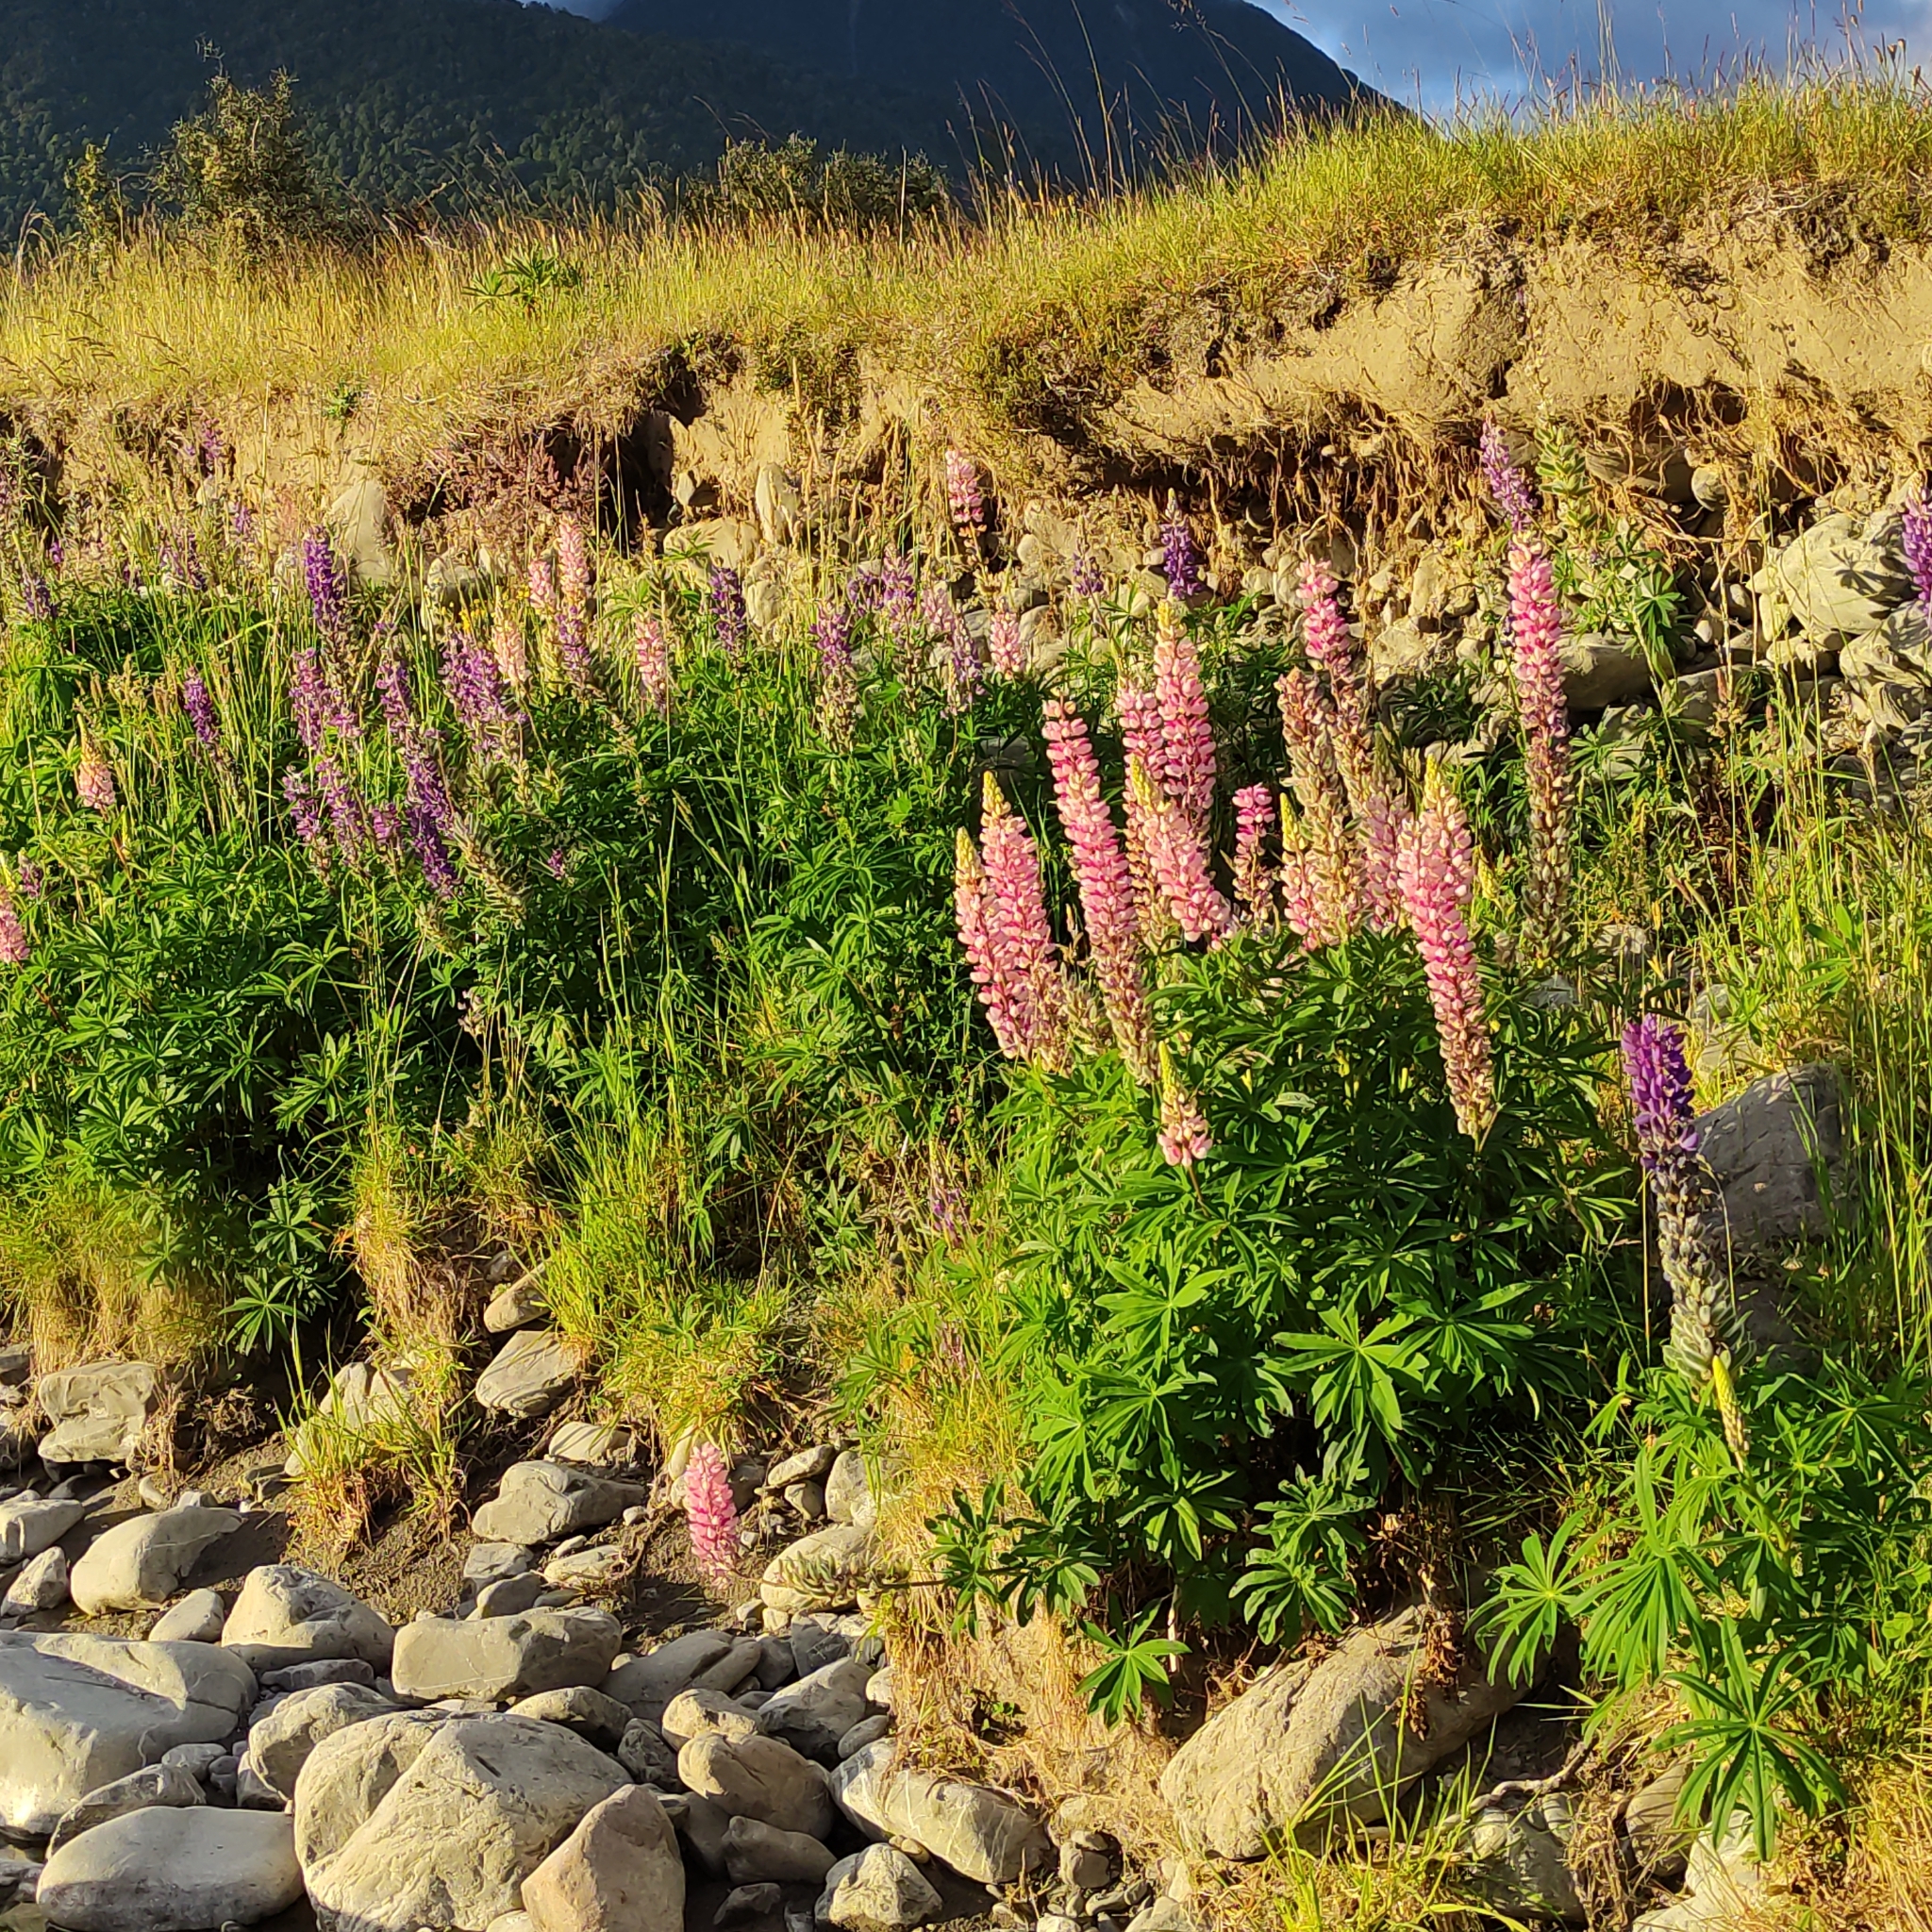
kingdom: Plantae
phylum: Tracheophyta
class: Magnoliopsida
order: Fabales
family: Fabaceae
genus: Lupinus
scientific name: Lupinus polyphyllus
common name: Garden lupin
